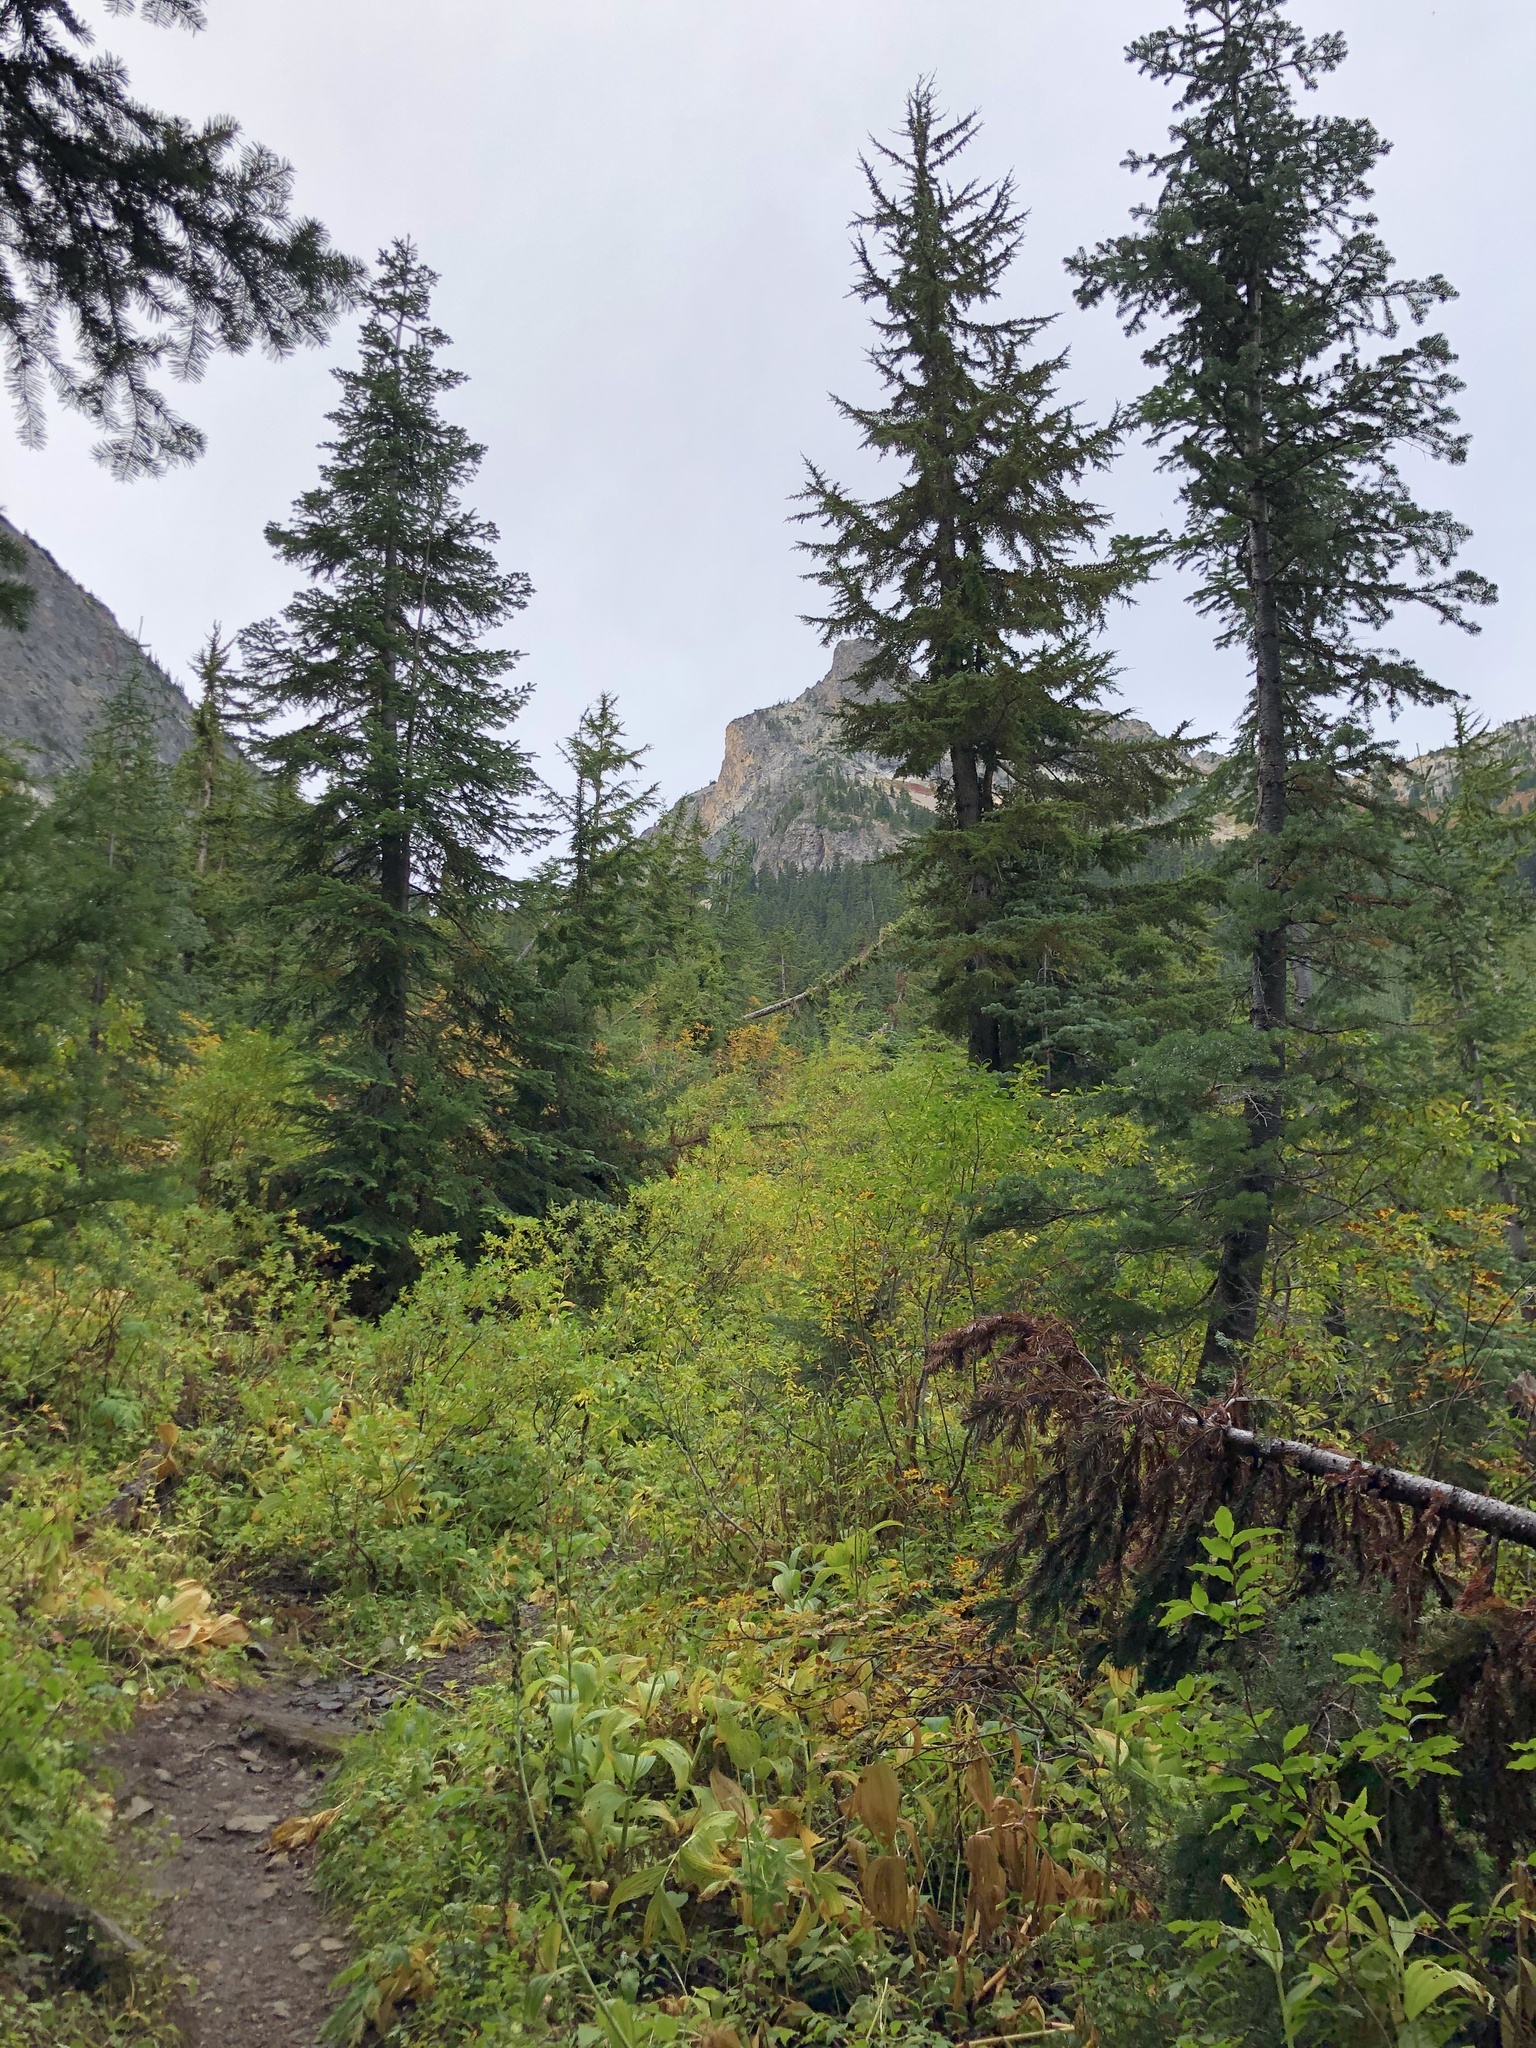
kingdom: Plantae
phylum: Tracheophyta
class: Pinopsida
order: Pinales
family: Pinaceae
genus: Tsuga
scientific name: Tsuga mertensiana
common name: Mountain hemlock
